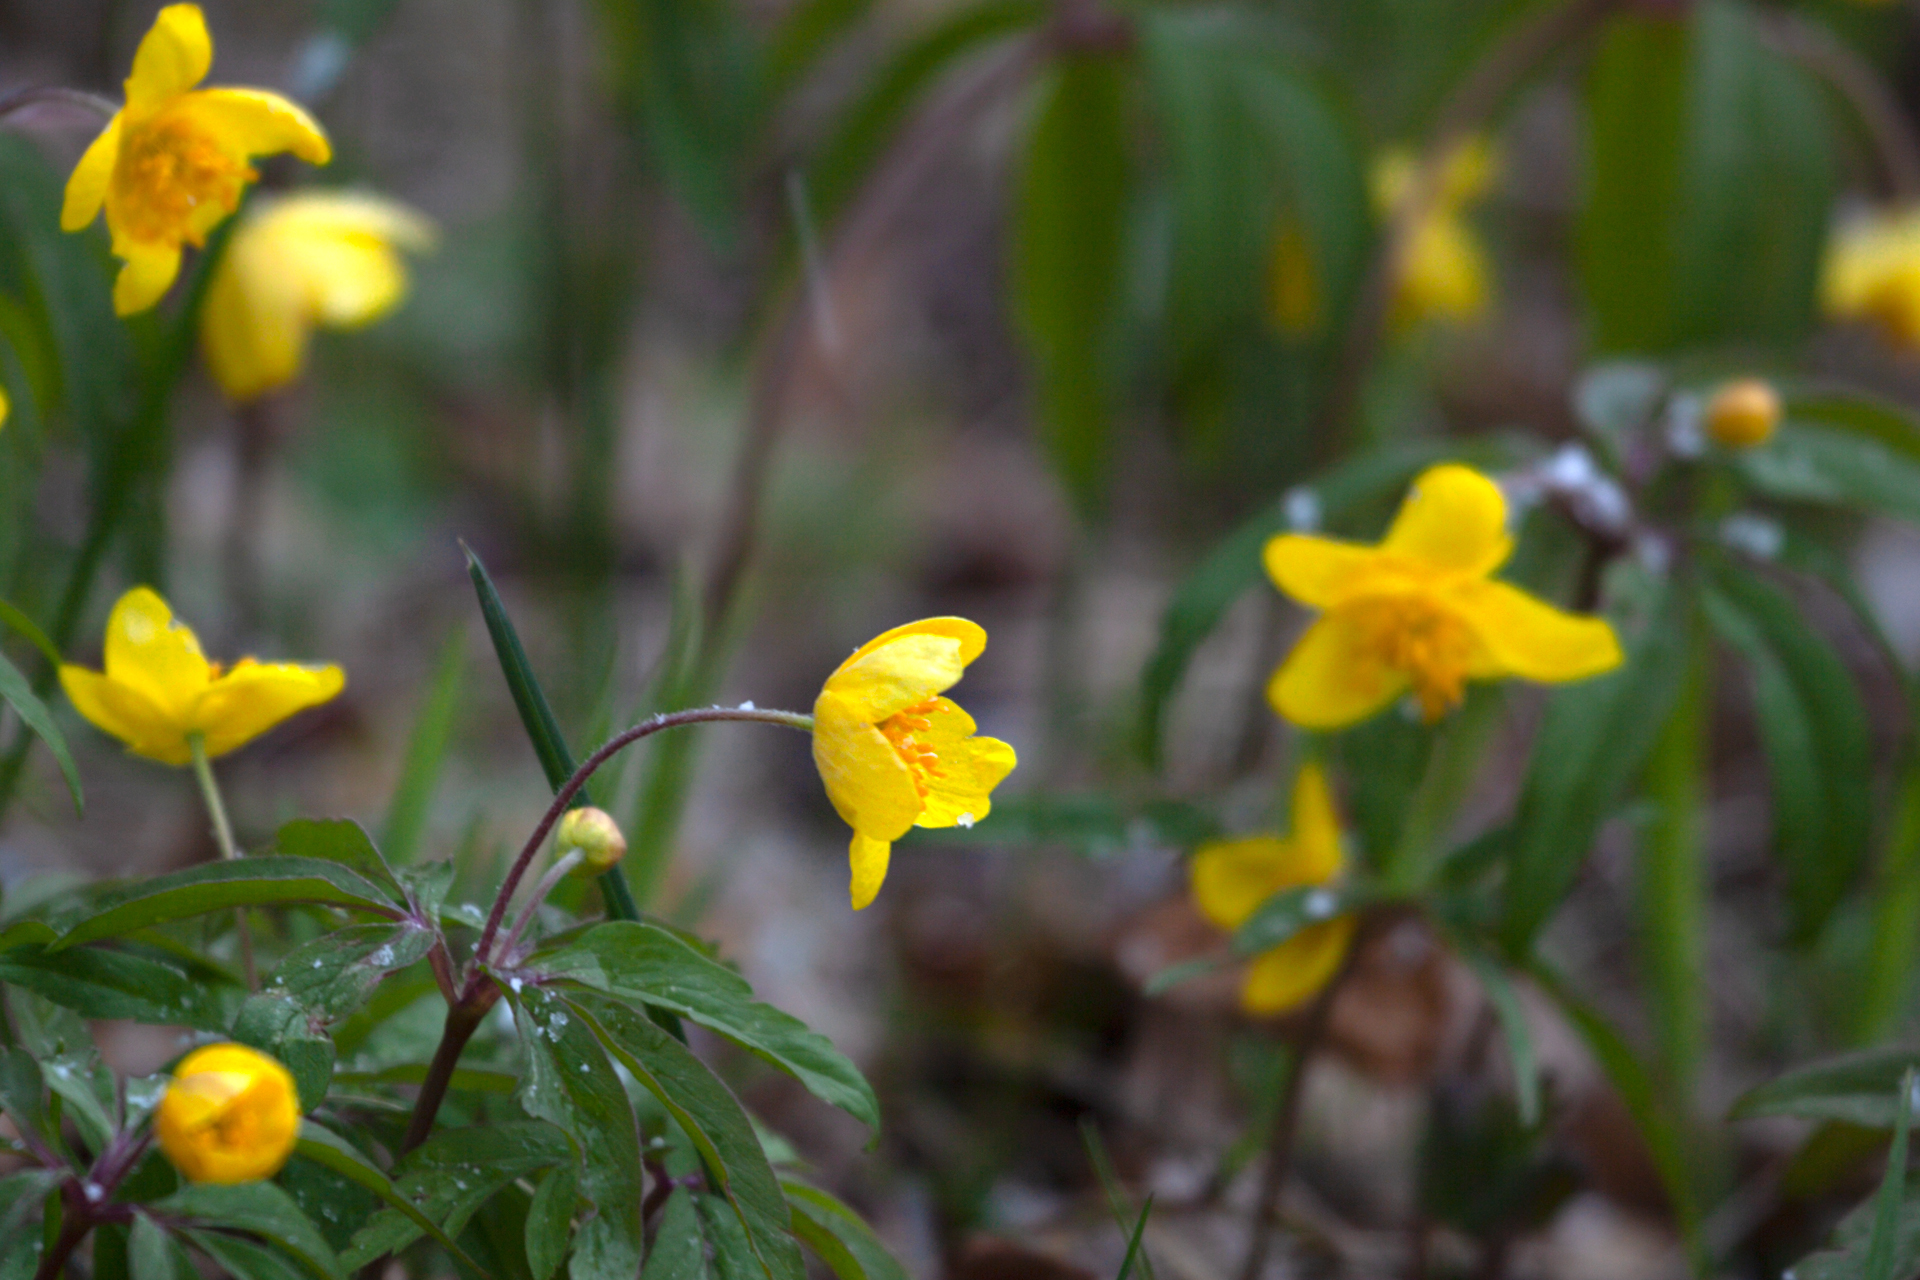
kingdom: Plantae
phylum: Tracheophyta
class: Magnoliopsida
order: Ranunculales
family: Ranunculaceae
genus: Anemone
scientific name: Anemone ranunculoides
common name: Yellow anemone
